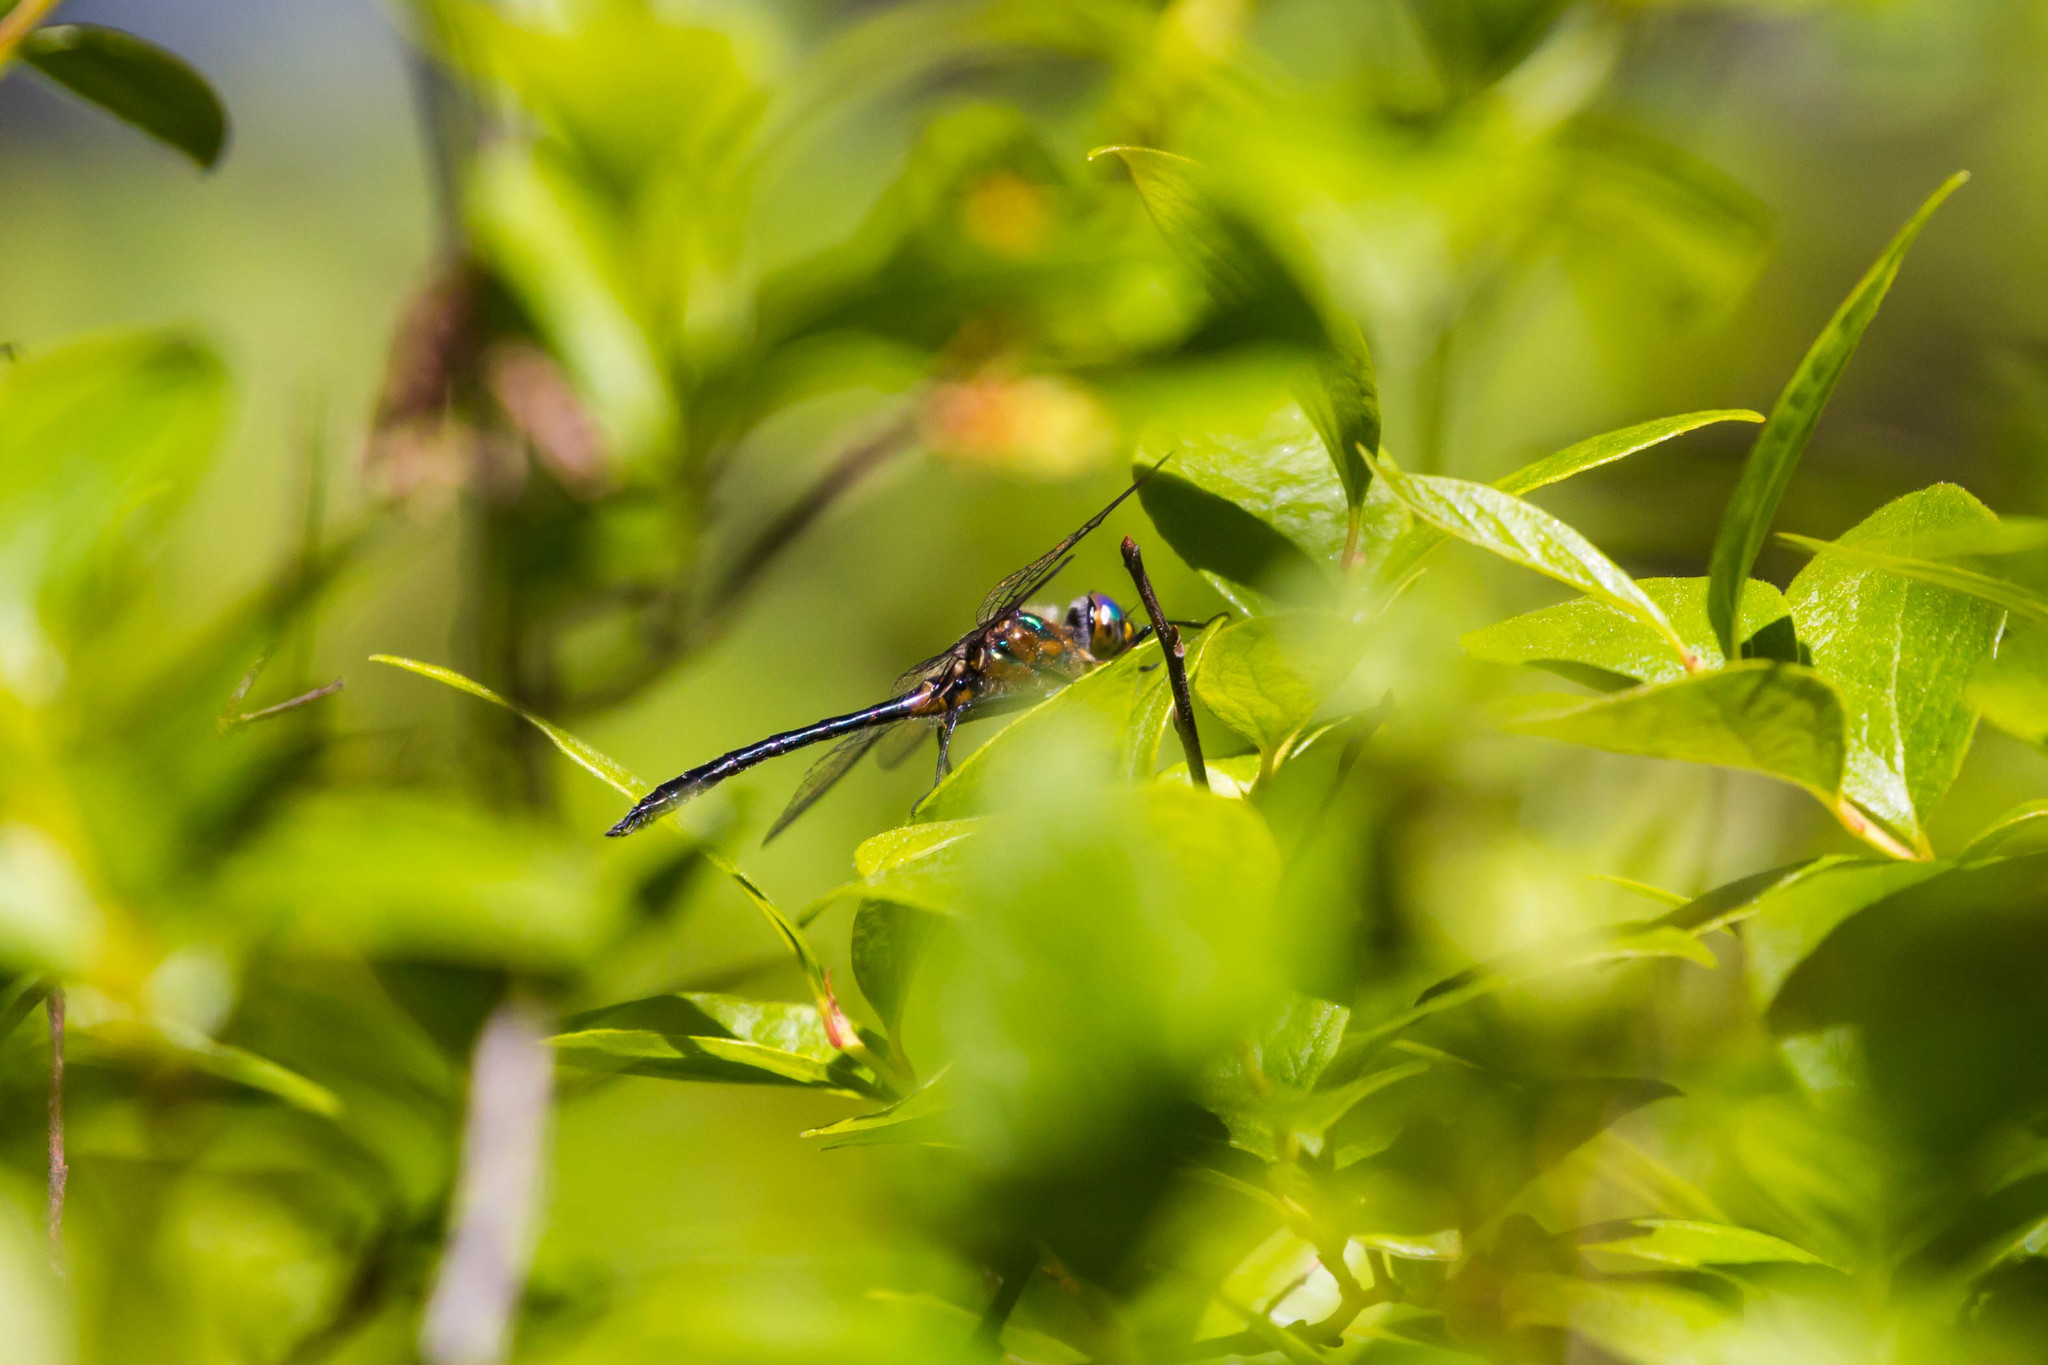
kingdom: Animalia
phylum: Arthropoda
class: Insecta
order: Odonata
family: Corduliidae
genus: Dorocordulia
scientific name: Dorocordulia lepida
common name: Petite emerald
